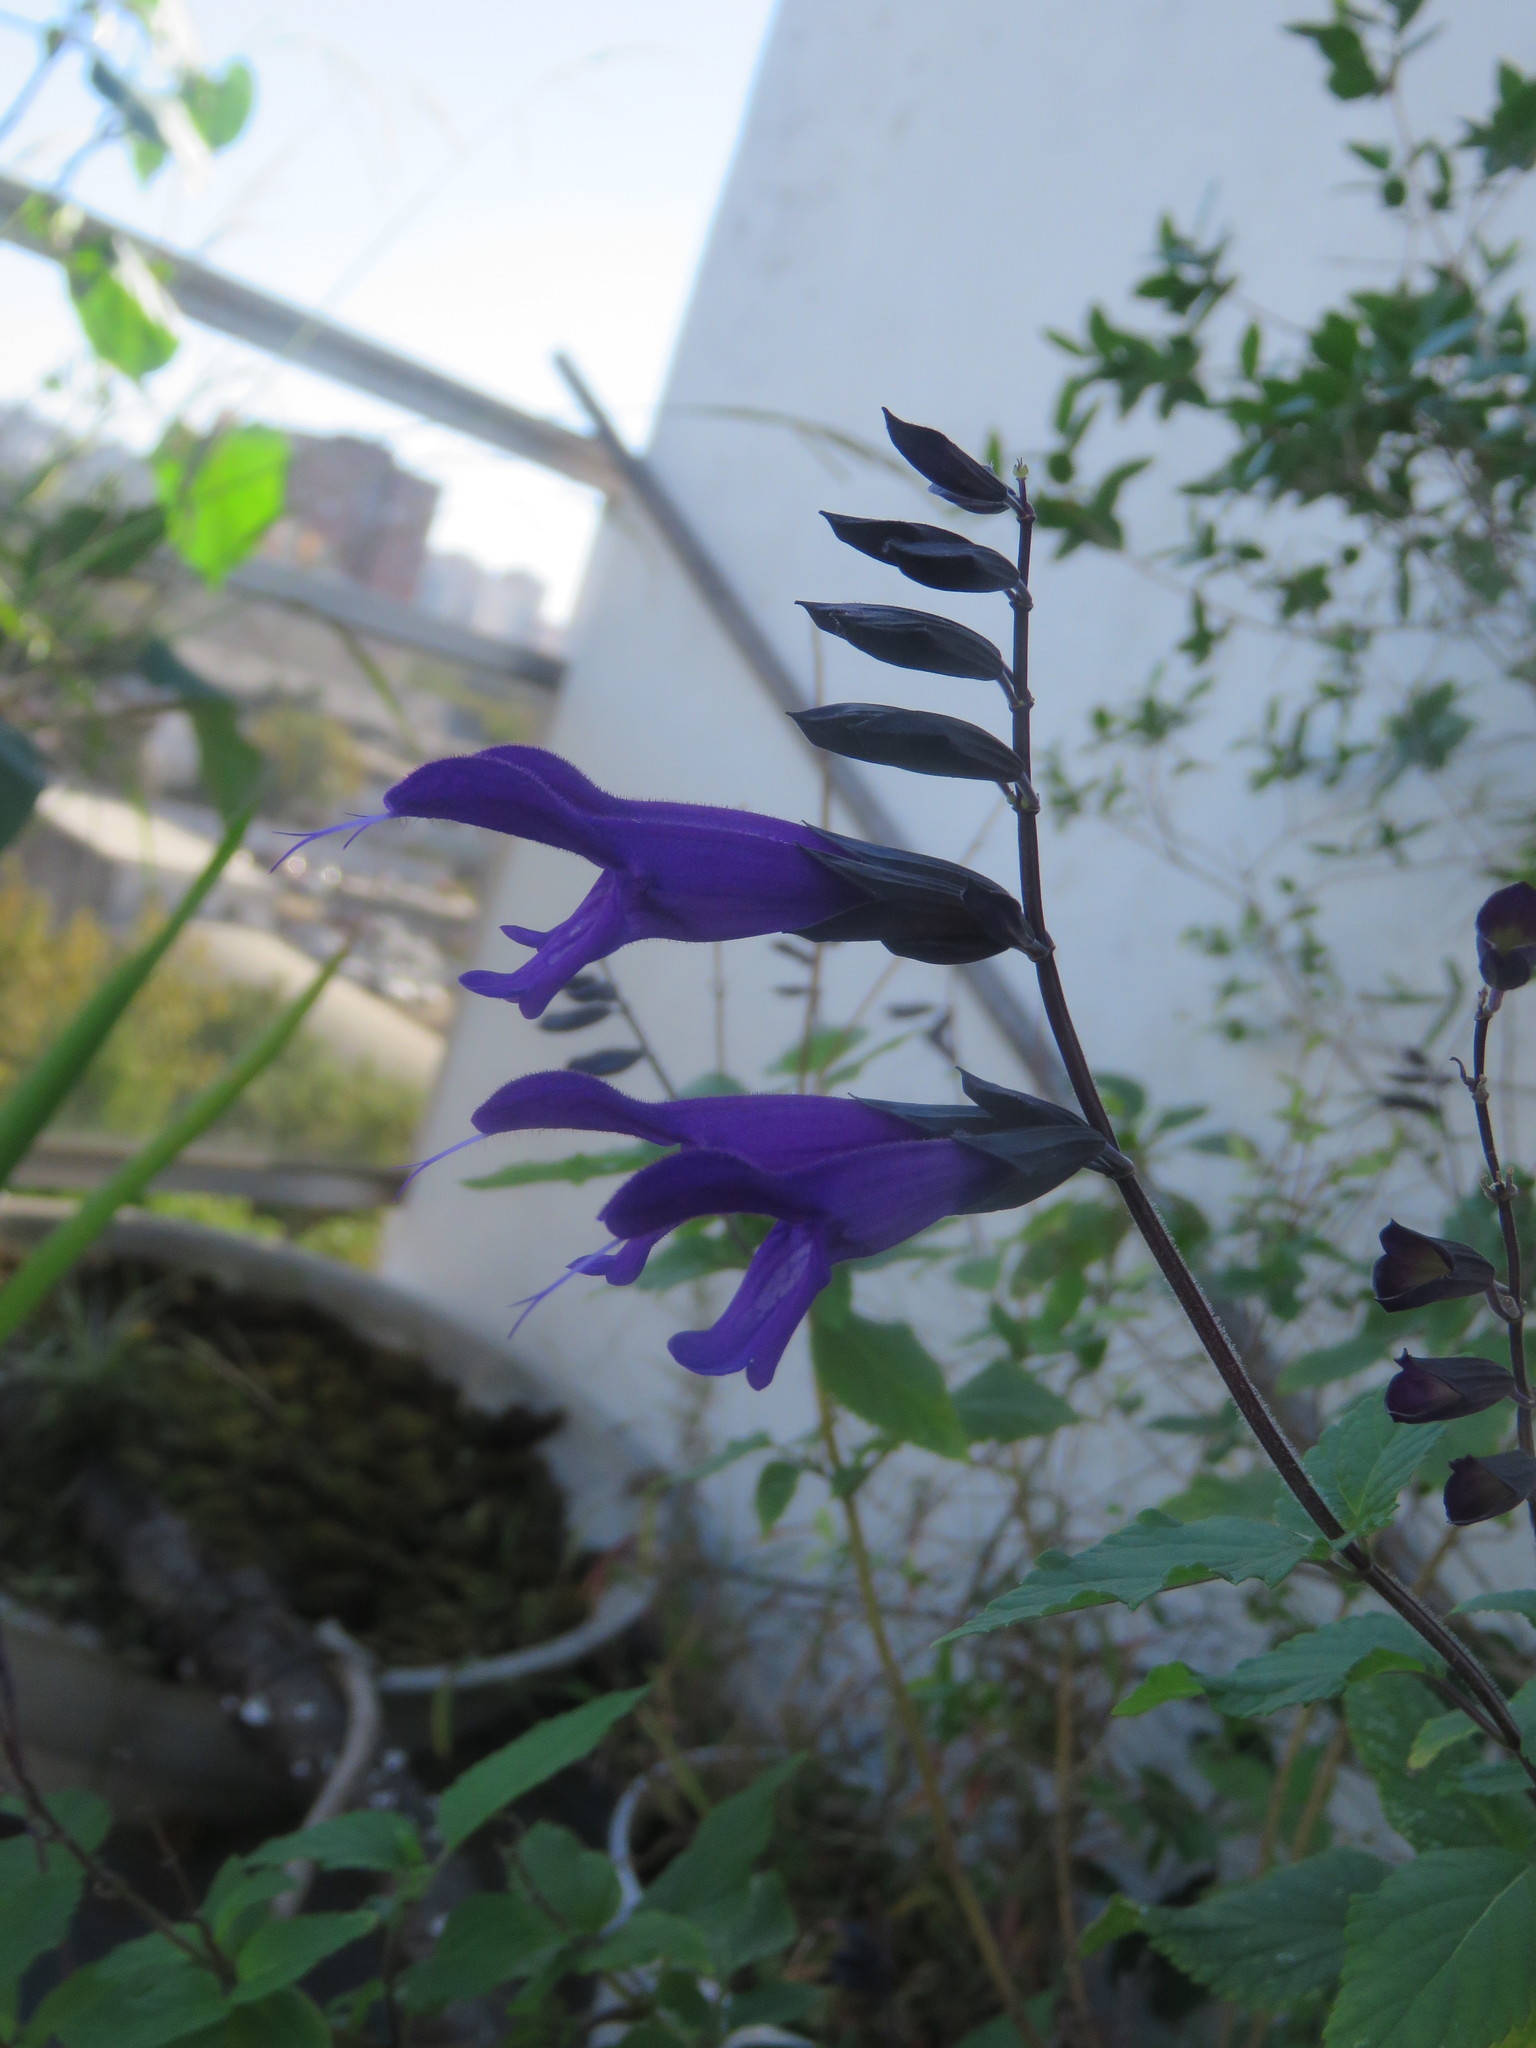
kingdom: Plantae
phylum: Tracheophyta
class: Magnoliopsida
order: Lamiales
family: Lamiaceae
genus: Salvia
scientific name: Salvia guaranitica
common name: Anise-scented sage
